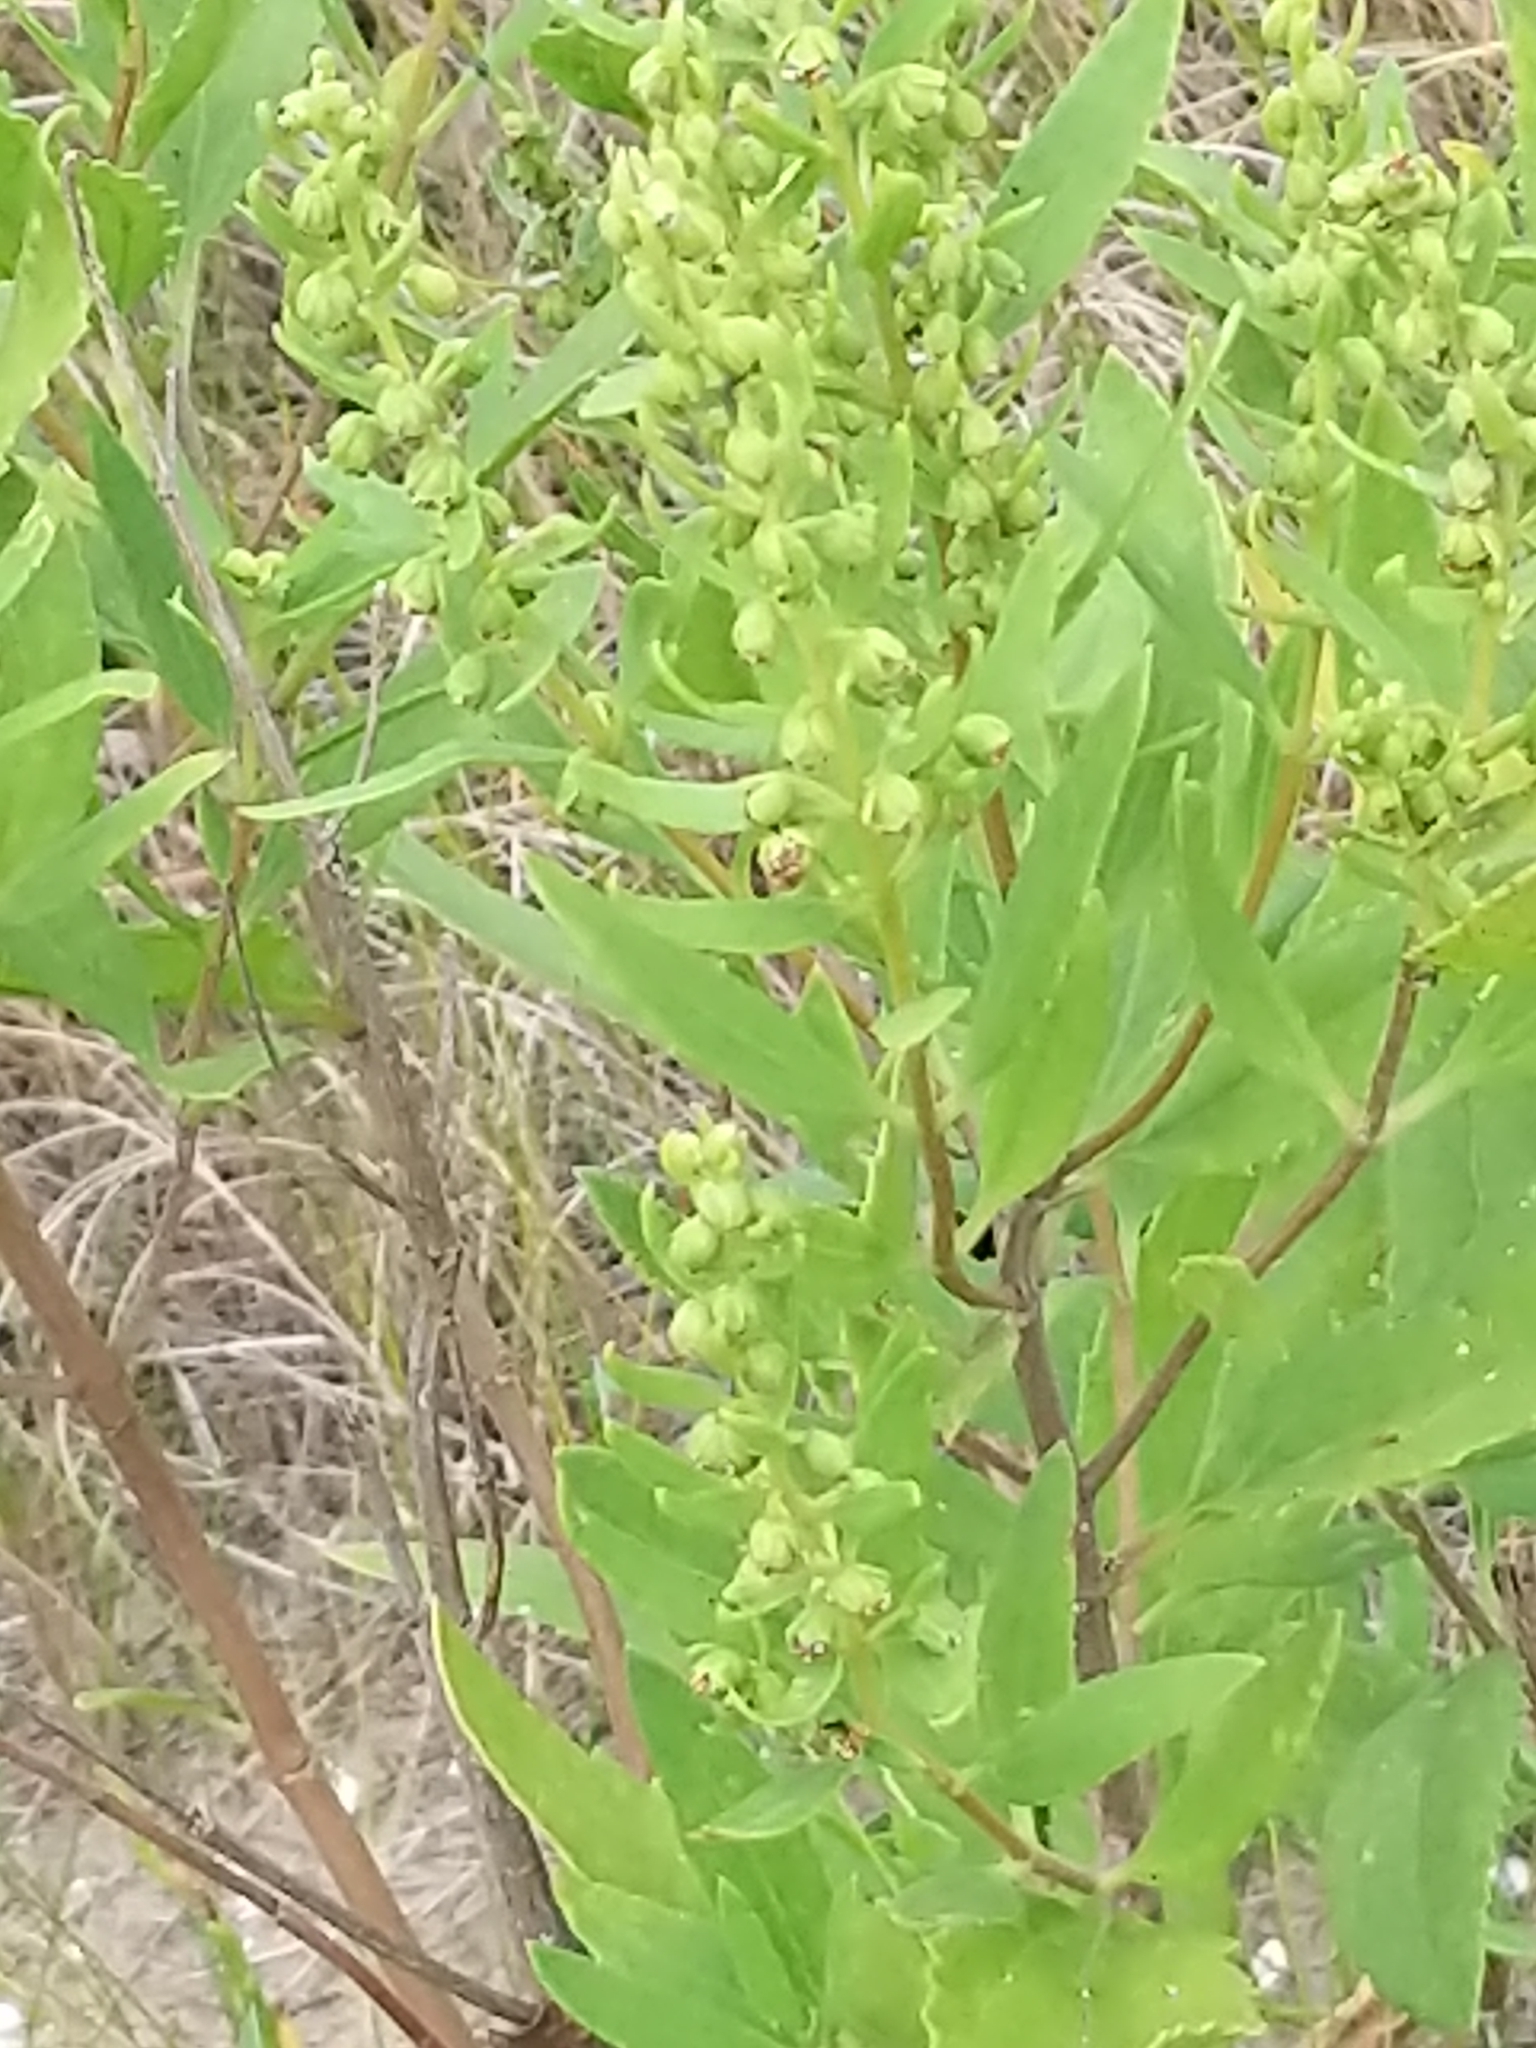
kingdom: Plantae
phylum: Tracheophyta
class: Magnoliopsida
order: Asterales
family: Asteraceae
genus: Iva
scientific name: Iva frutescens
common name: Big-leaved marsh-elder
